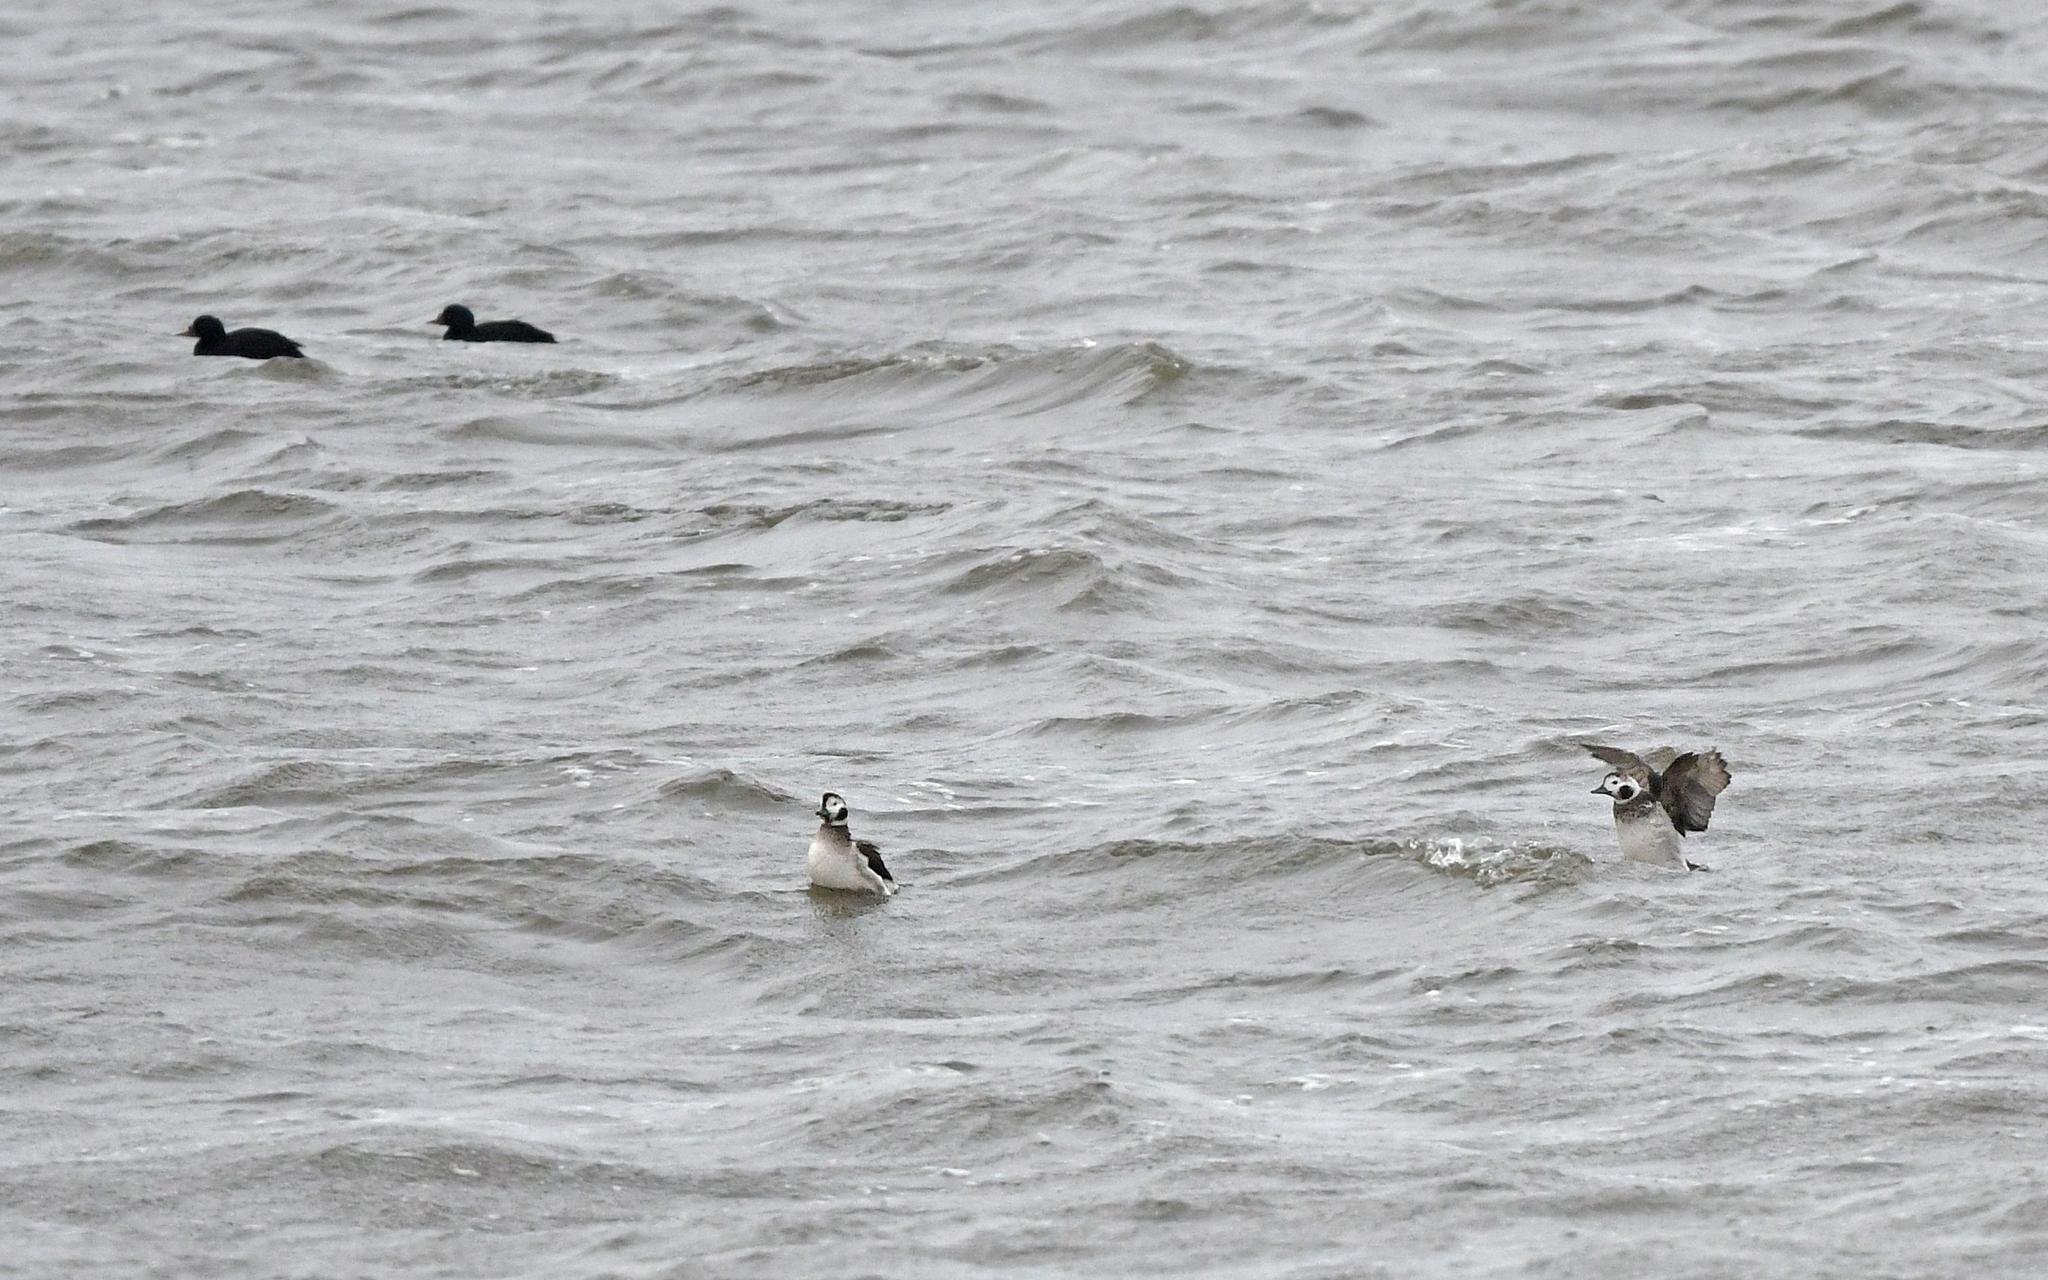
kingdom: Animalia
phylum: Chordata
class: Aves
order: Anseriformes
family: Anatidae
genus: Clangula
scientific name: Clangula hyemalis
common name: Long-tailed duck
